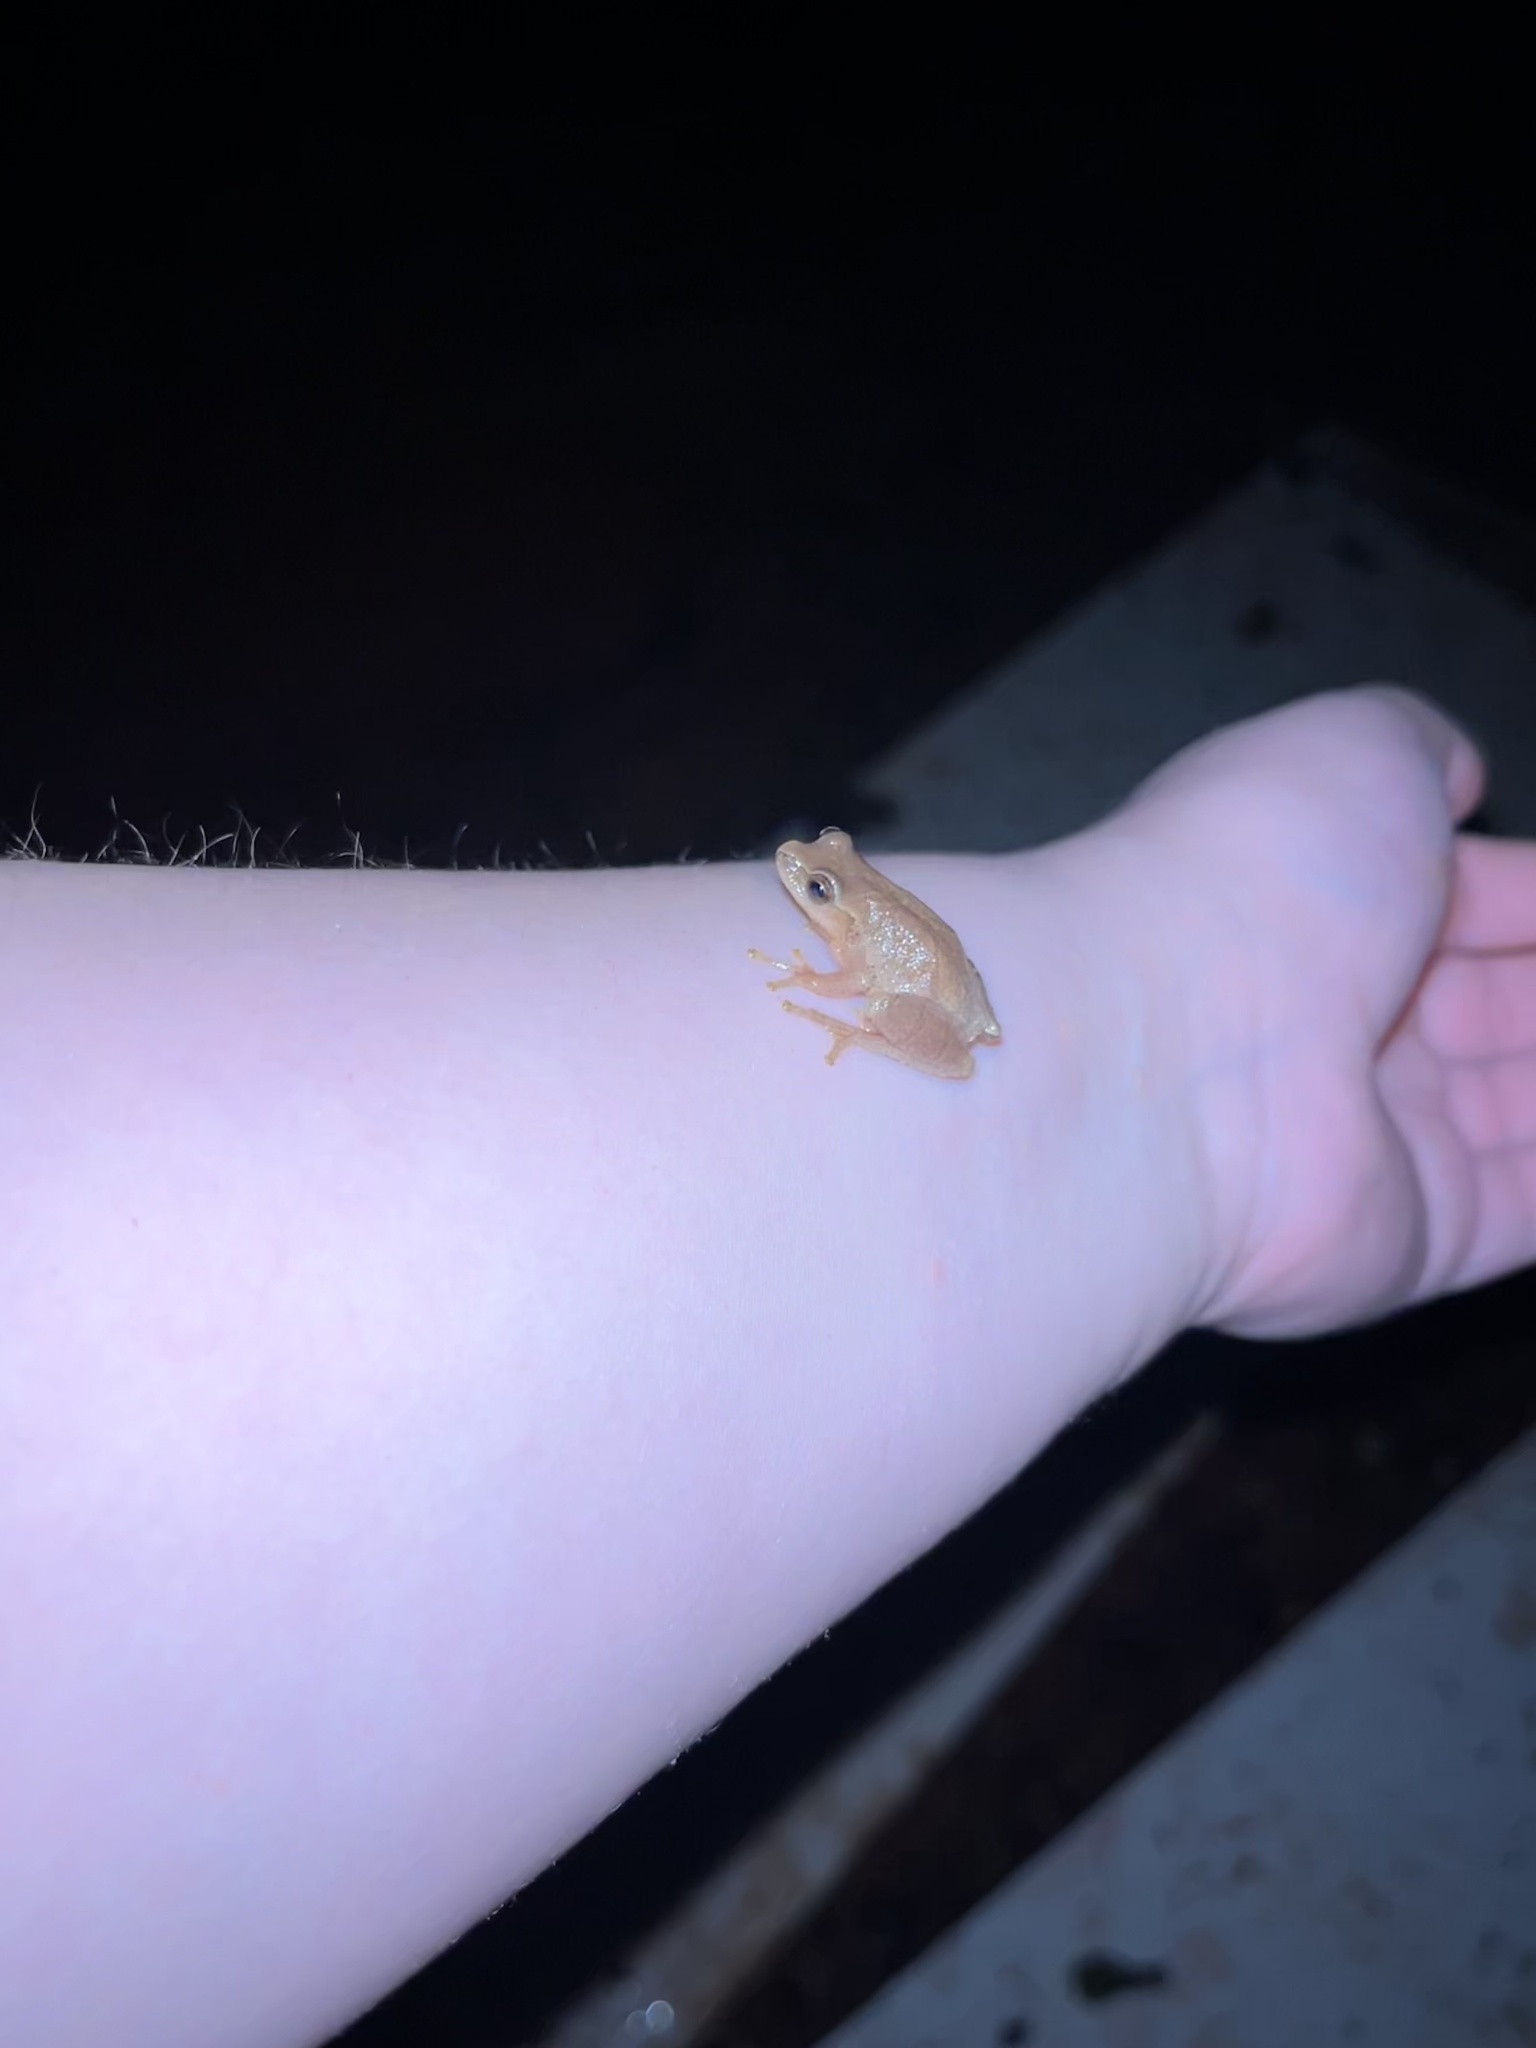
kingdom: Animalia
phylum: Chordata
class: Amphibia
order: Anura
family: Hylidae
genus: Pseudacris
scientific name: Pseudacris crucifer
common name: Spring peeper
